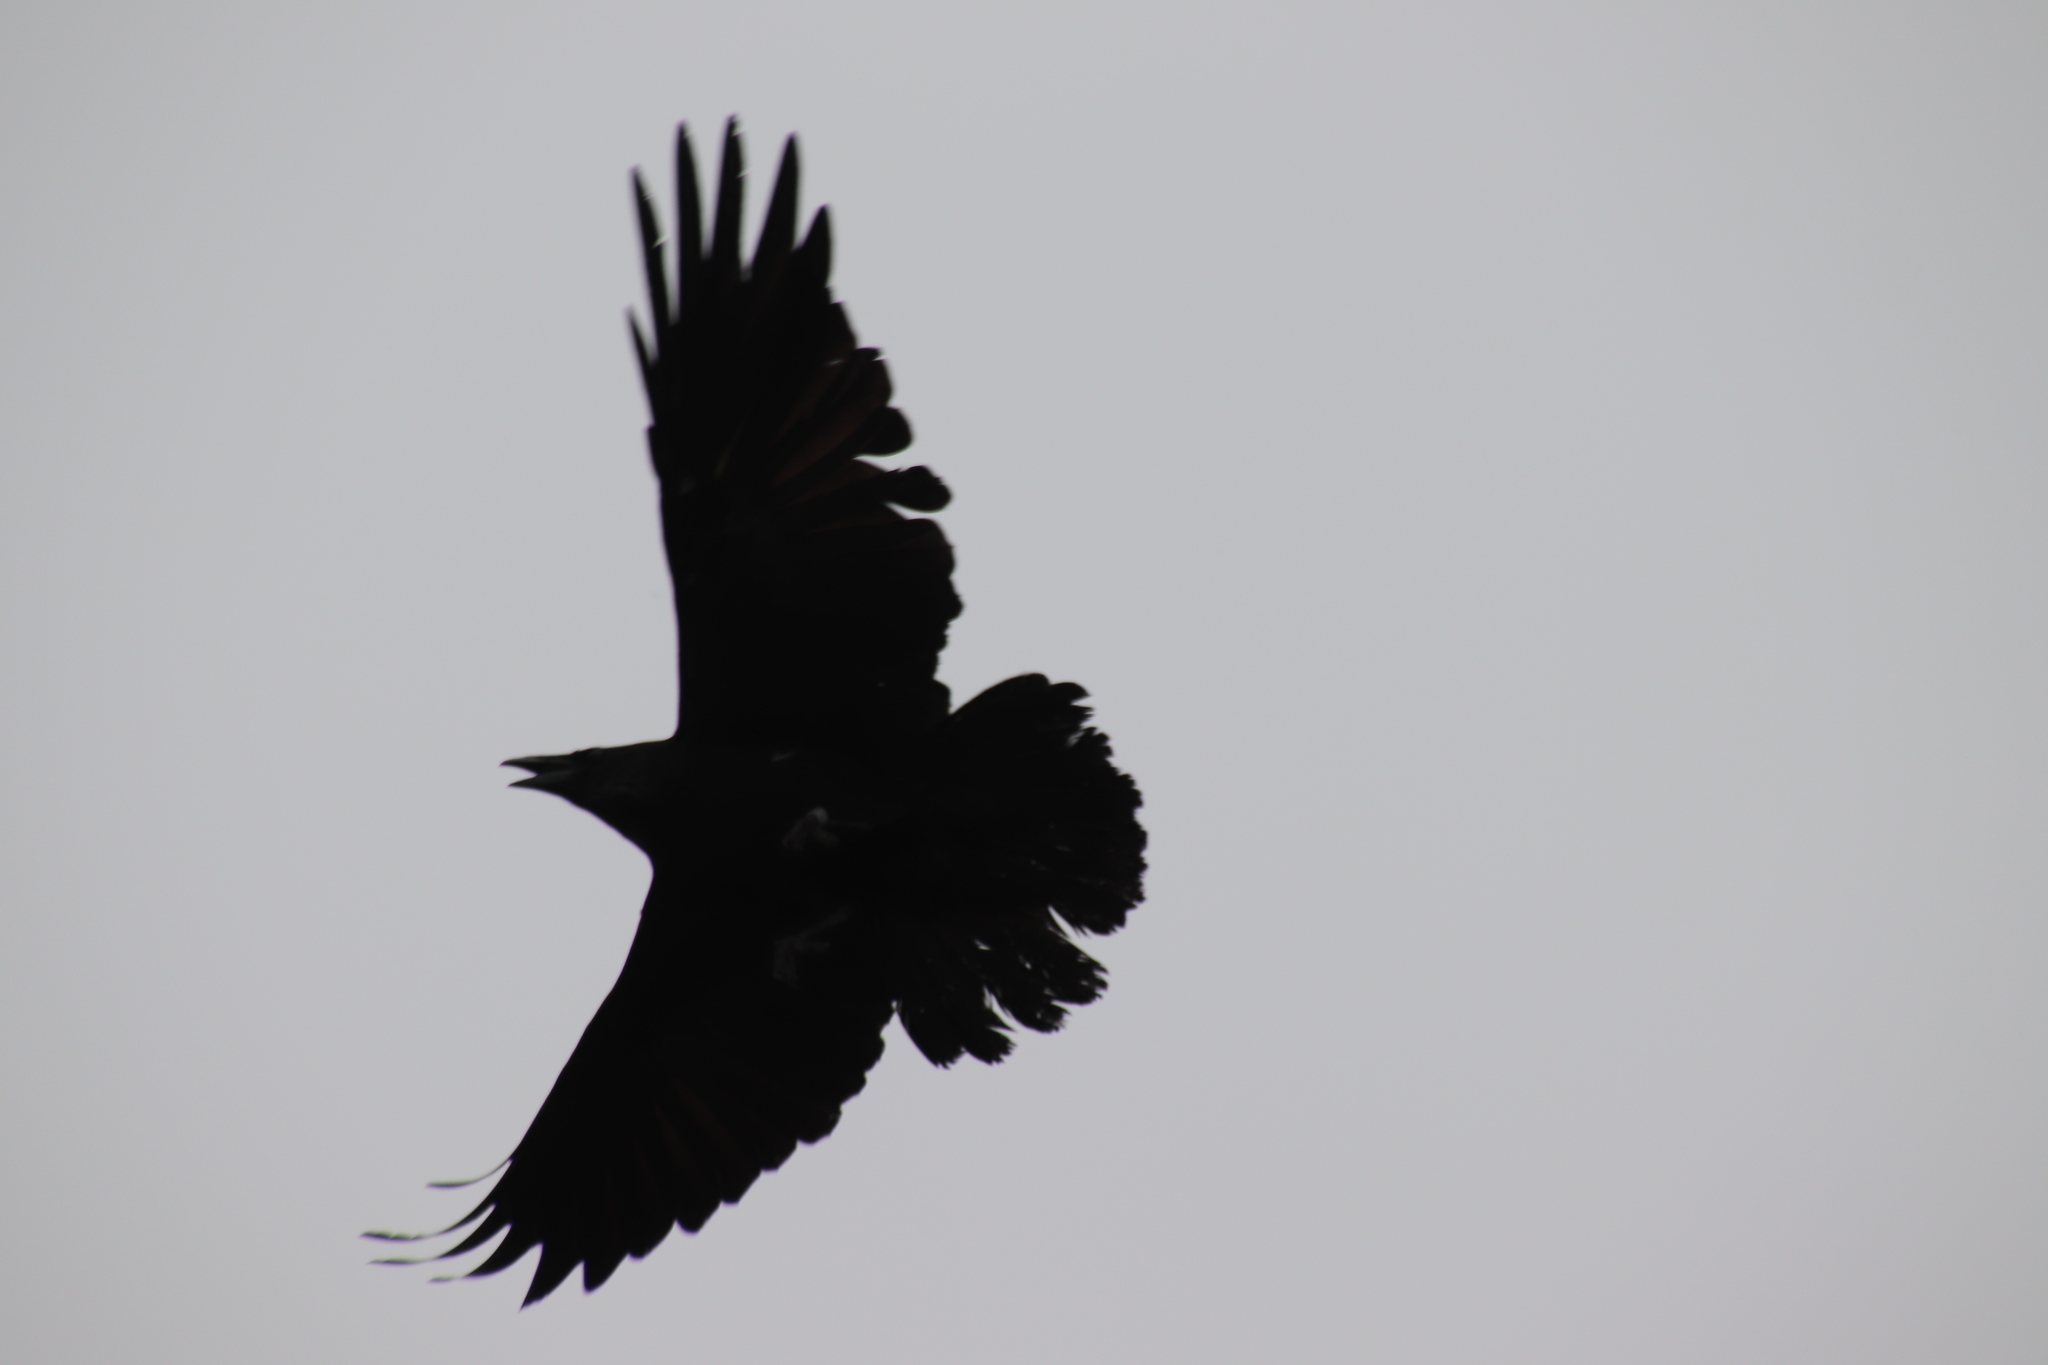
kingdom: Animalia
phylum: Chordata
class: Aves
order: Passeriformes
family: Corvidae
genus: Corvus
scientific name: Corvus brachyrhynchos
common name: American crow
